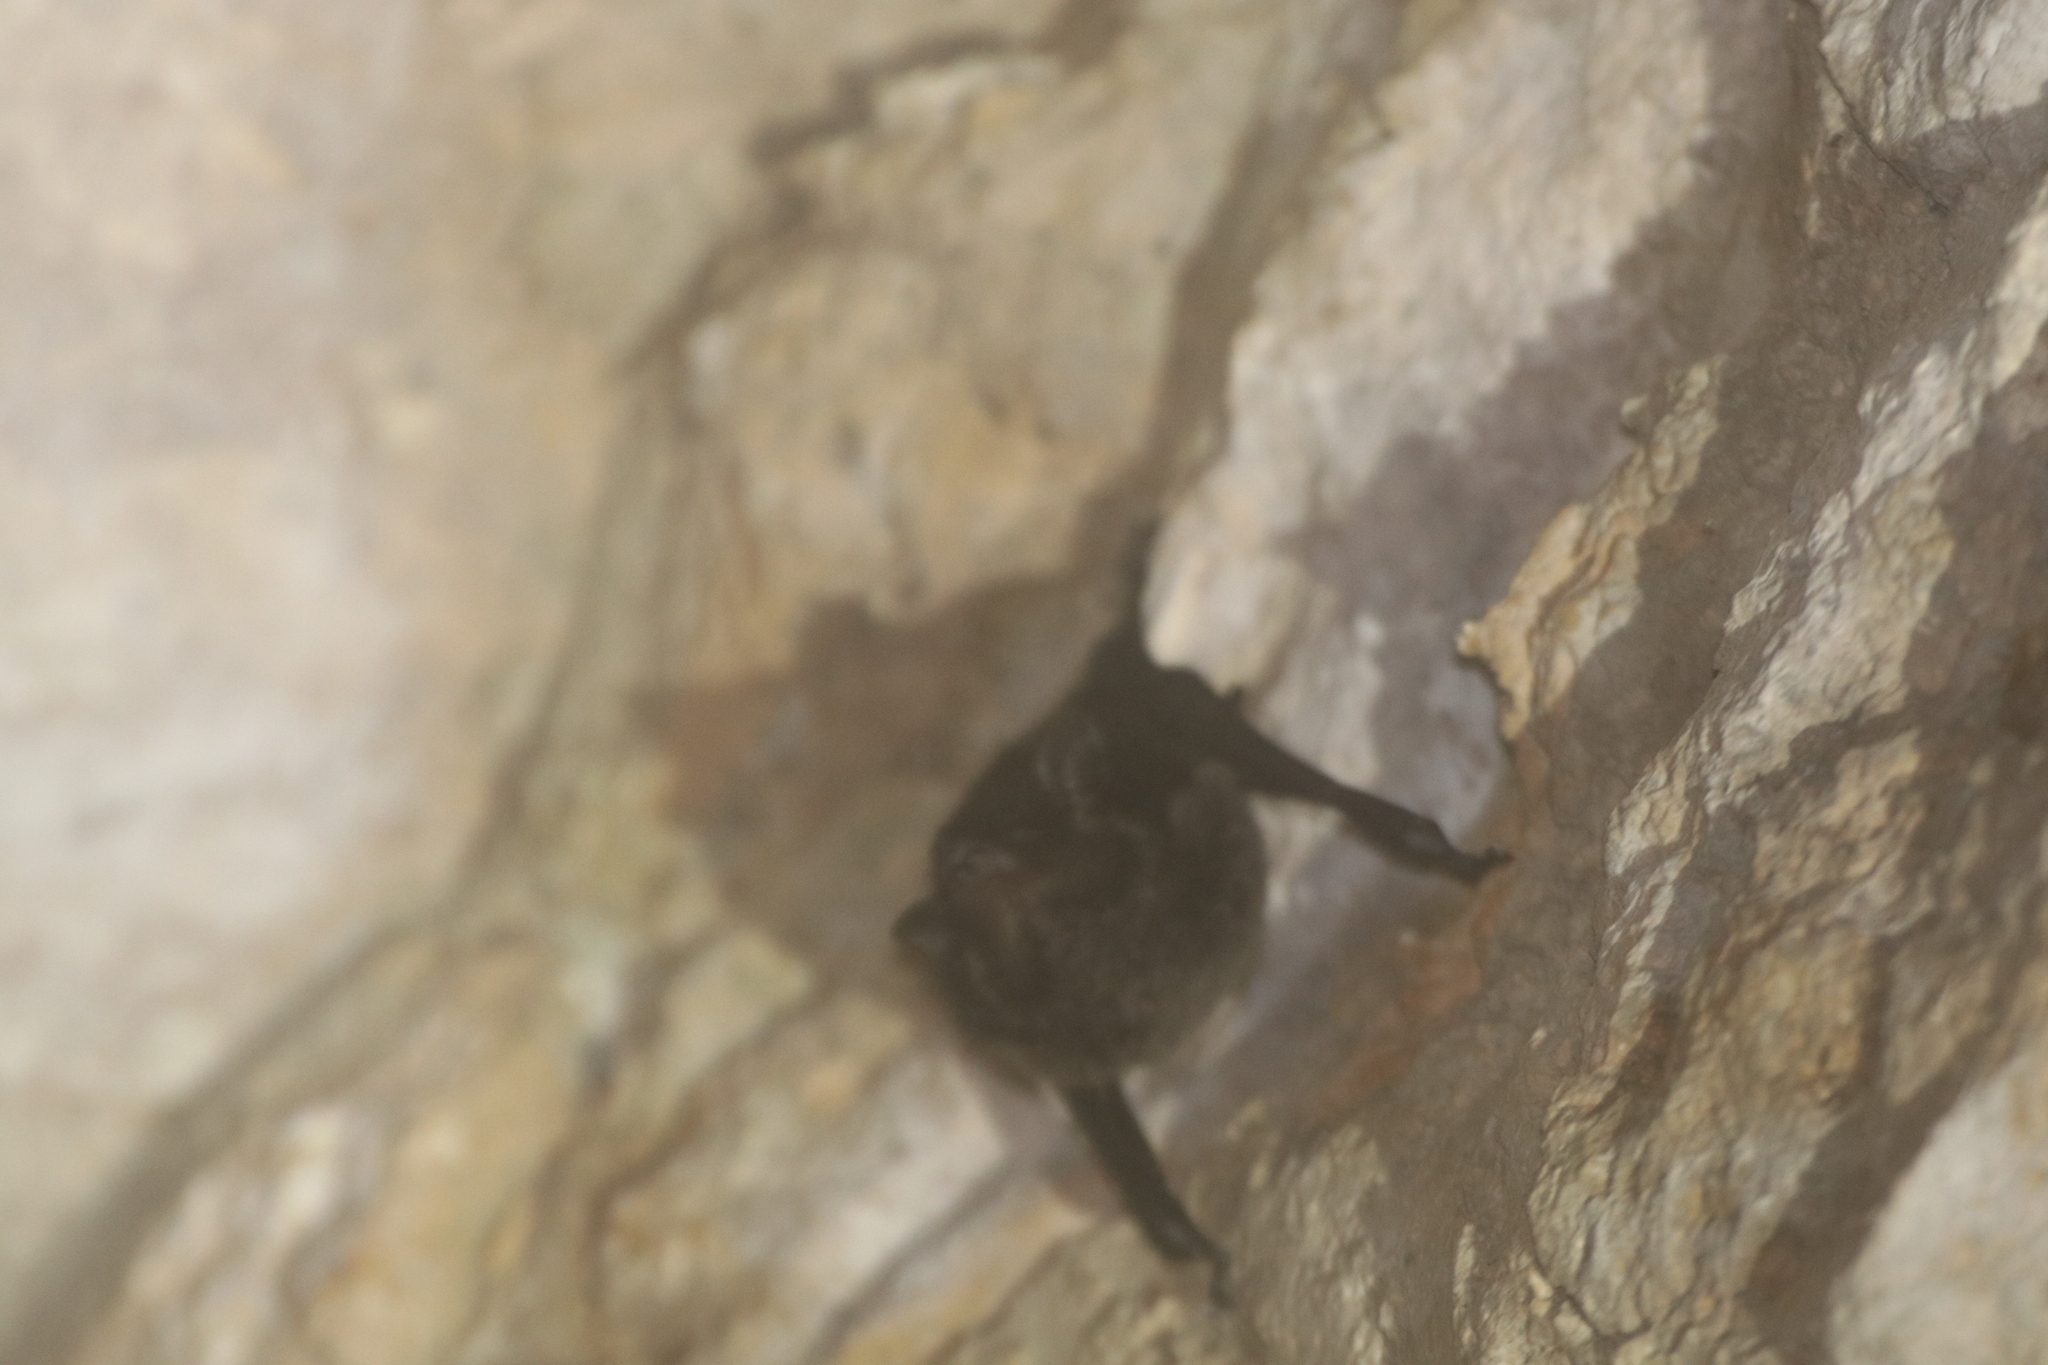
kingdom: Animalia
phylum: Chordata
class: Mammalia
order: Chiroptera
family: Emballonuridae
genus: Saccopteryx
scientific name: Saccopteryx bilineata
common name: Greater sac-winged bat
